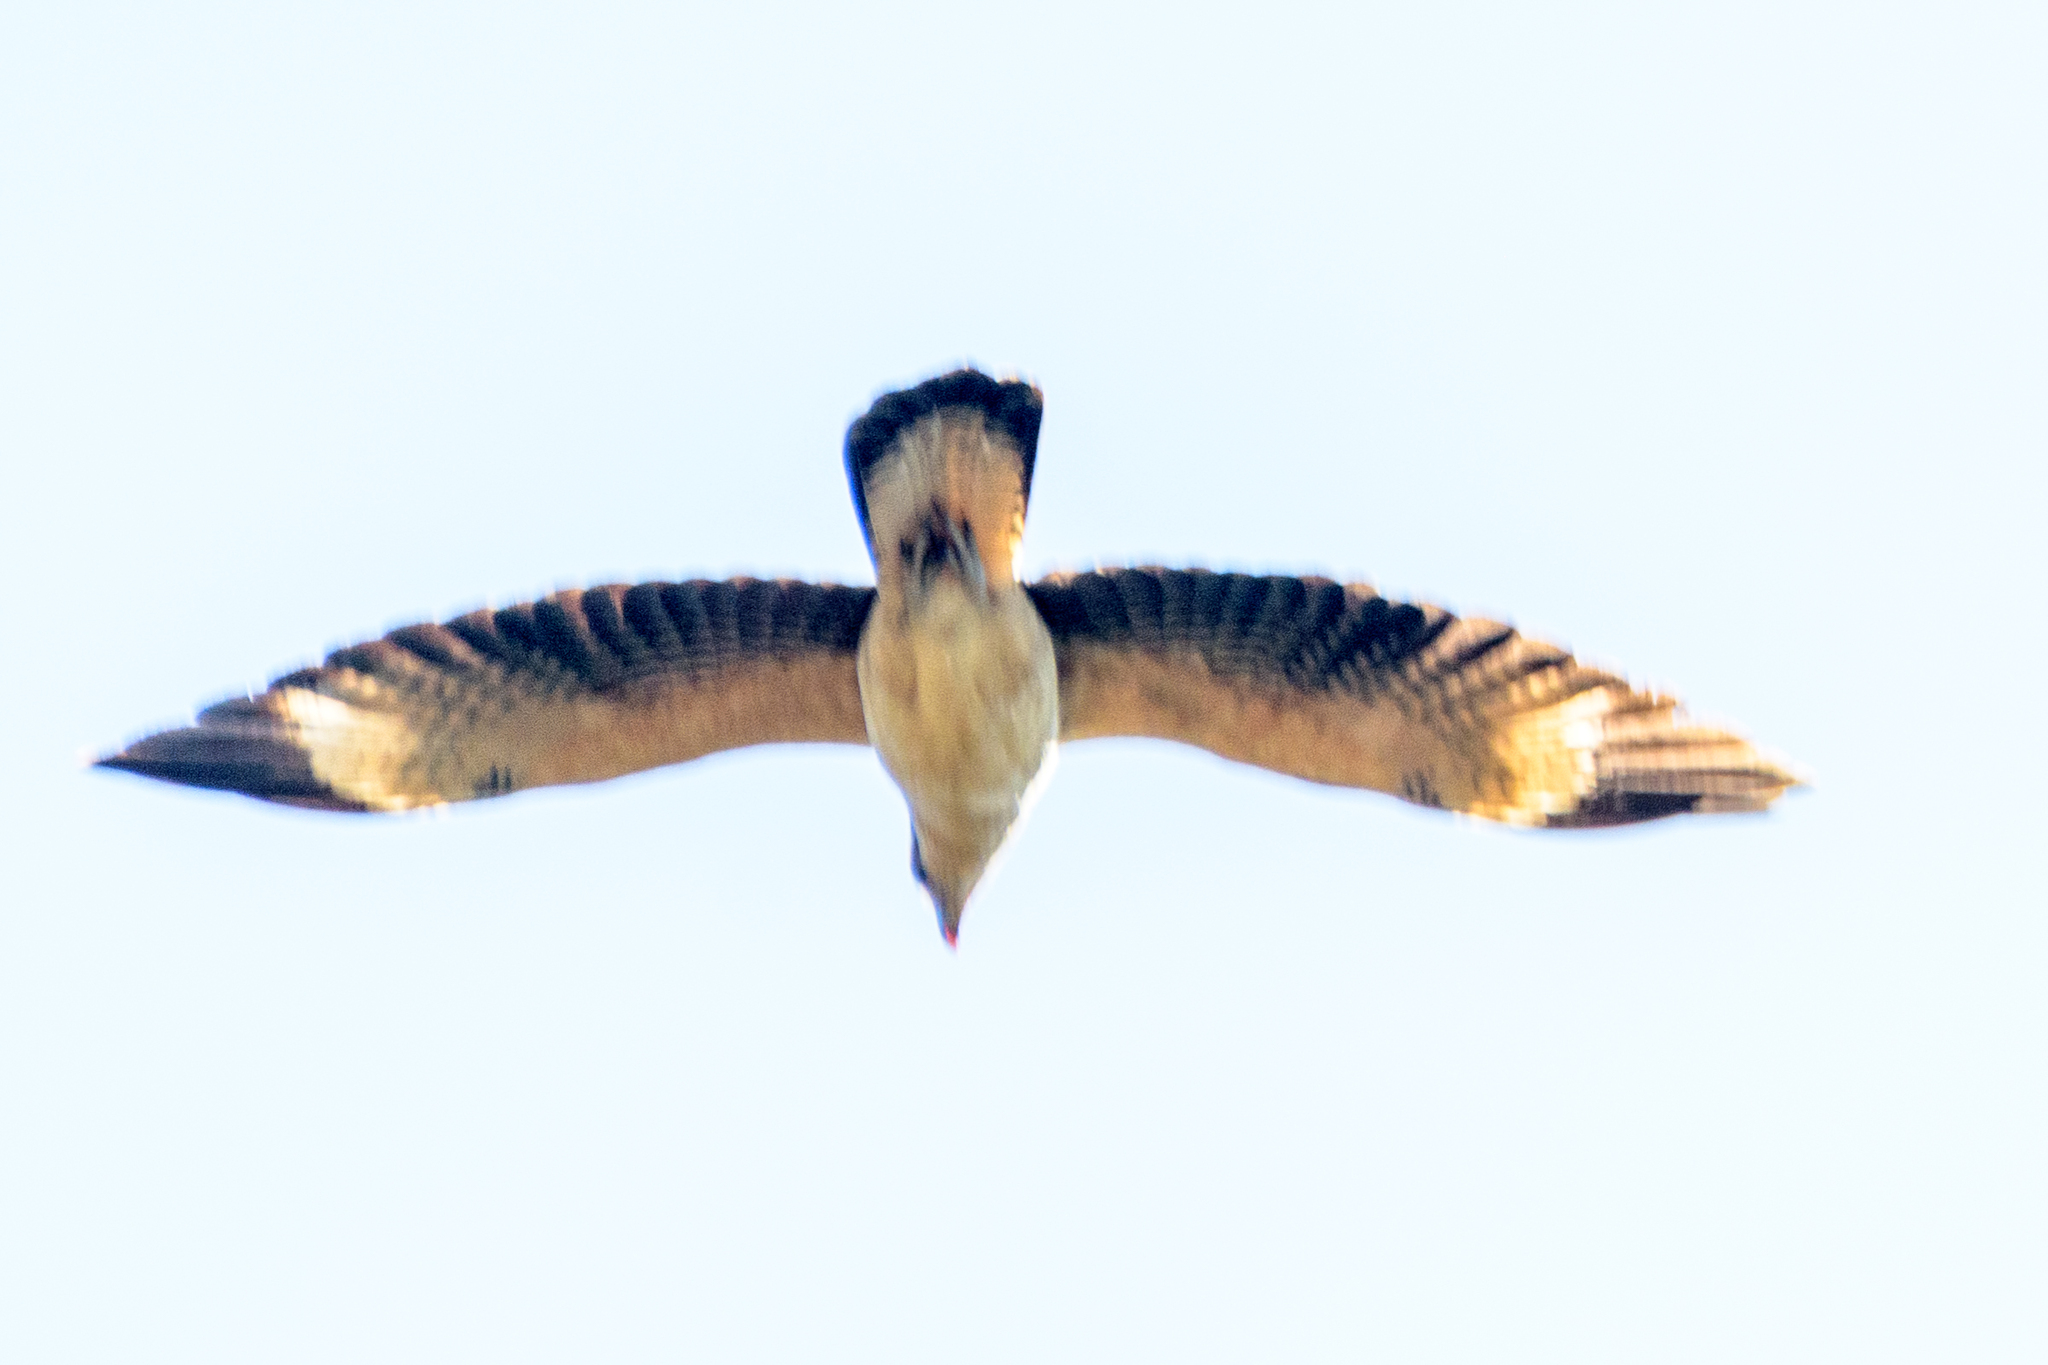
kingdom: Animalia
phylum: Chordata
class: Aves
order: Falconiformes
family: Falconidae
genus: Daptrius
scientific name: Daptrius
